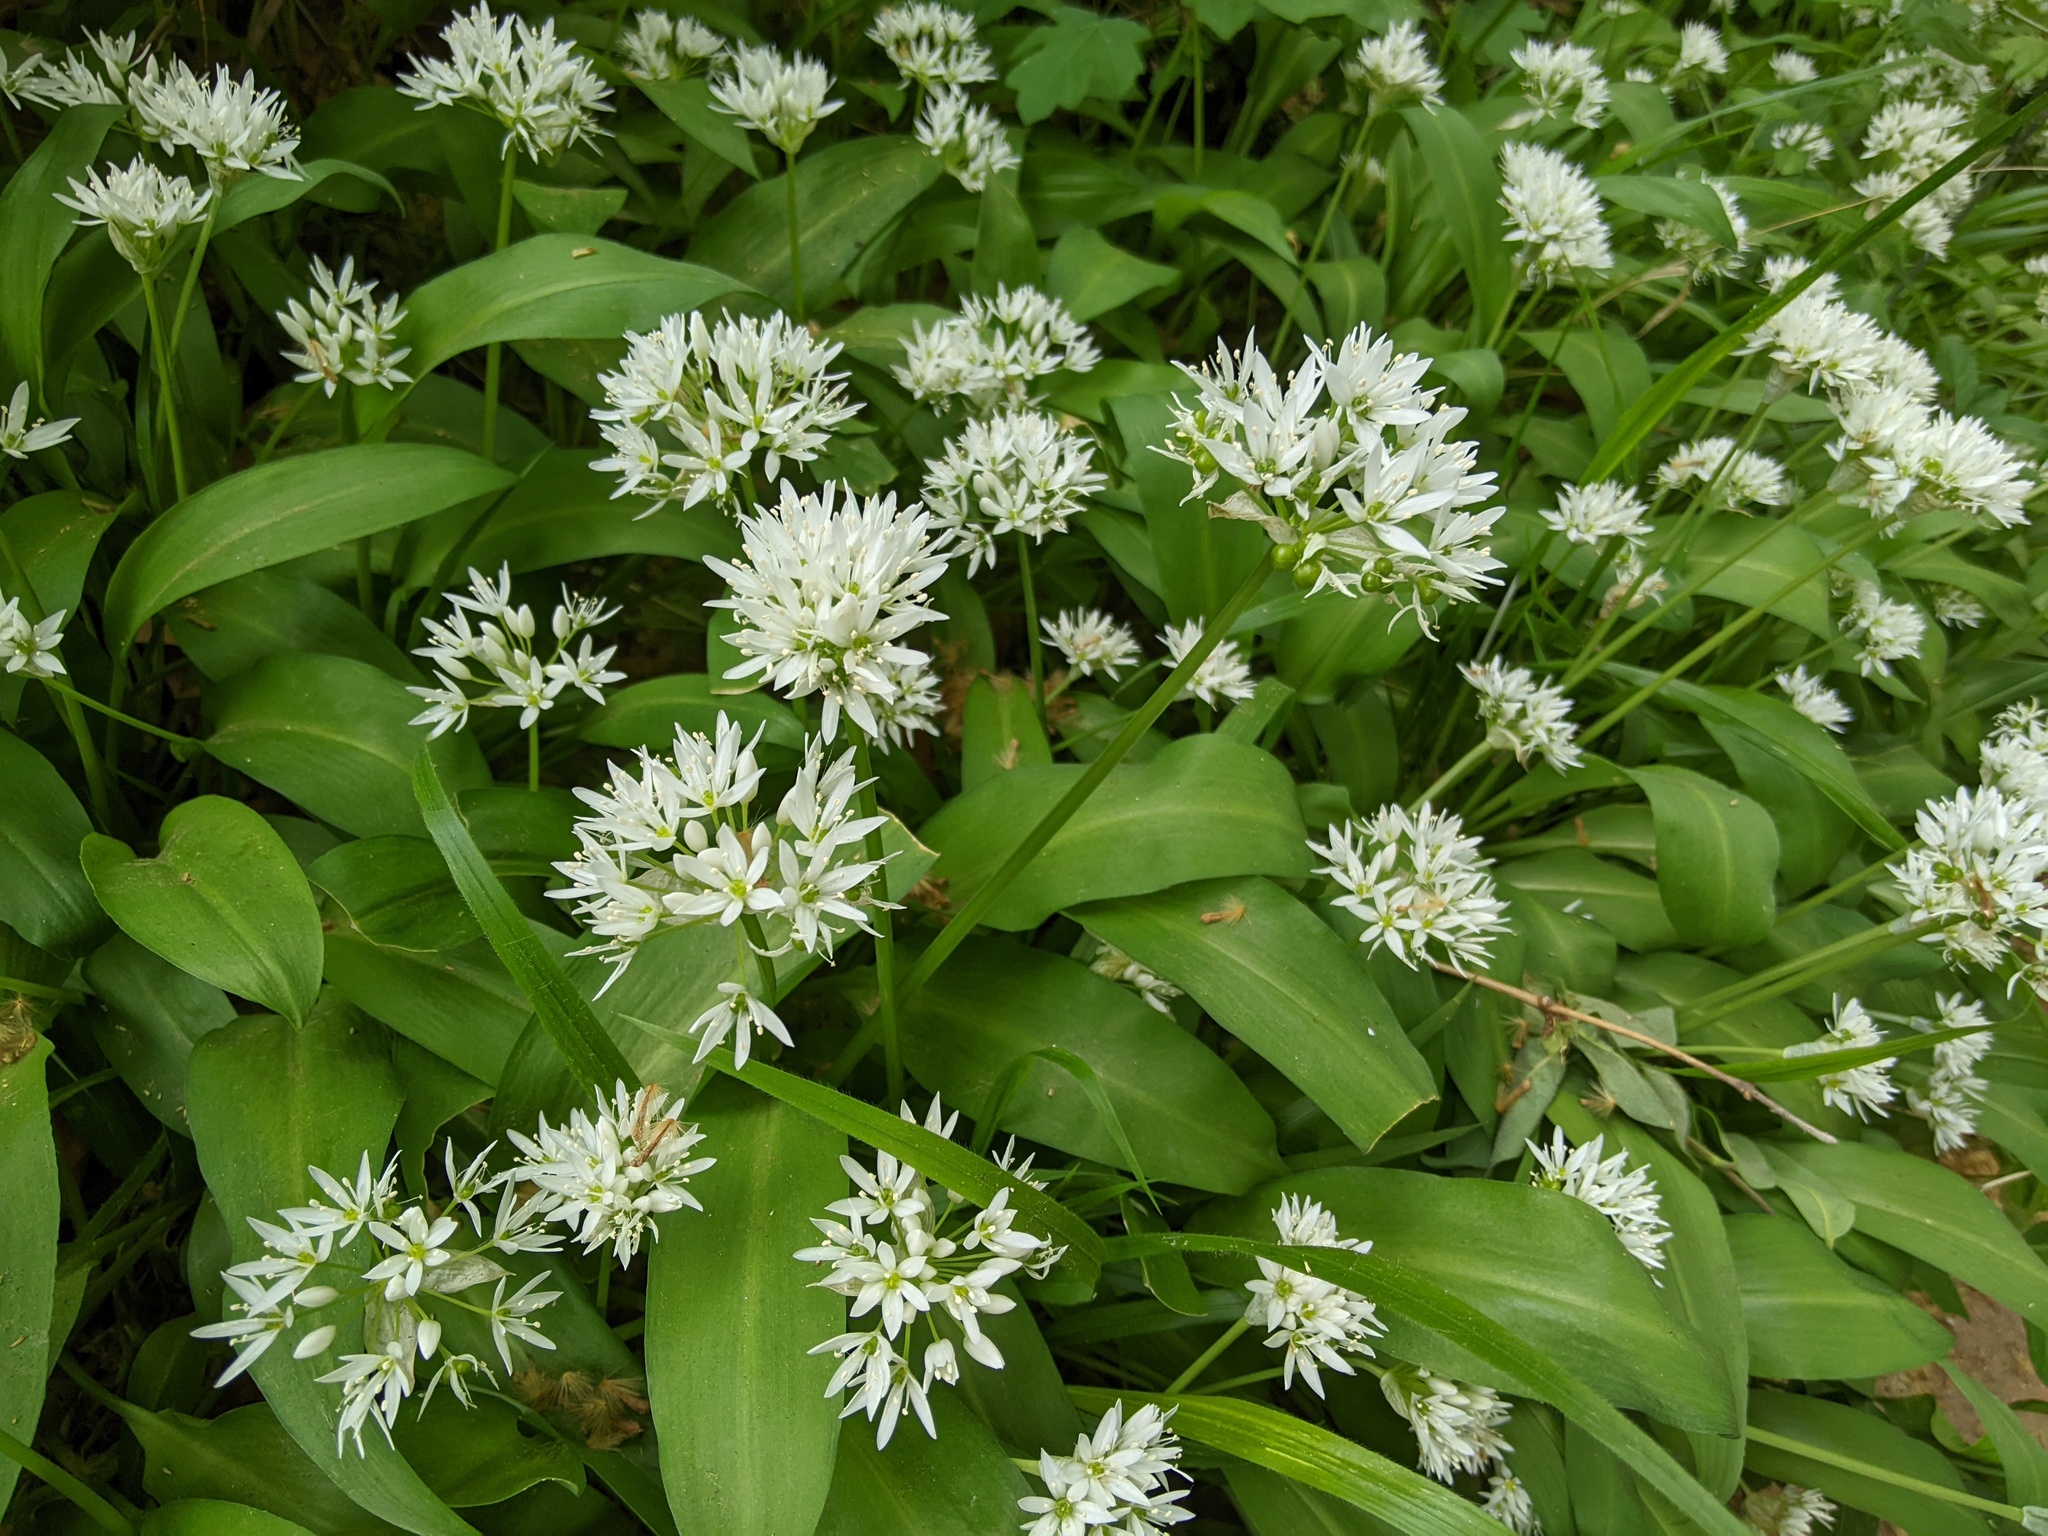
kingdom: Plantae
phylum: Tracheophyta
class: Liliopsida
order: Asparagales
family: Amaryllidaceae
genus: Allium
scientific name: Allium ursinum
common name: Ramsons
